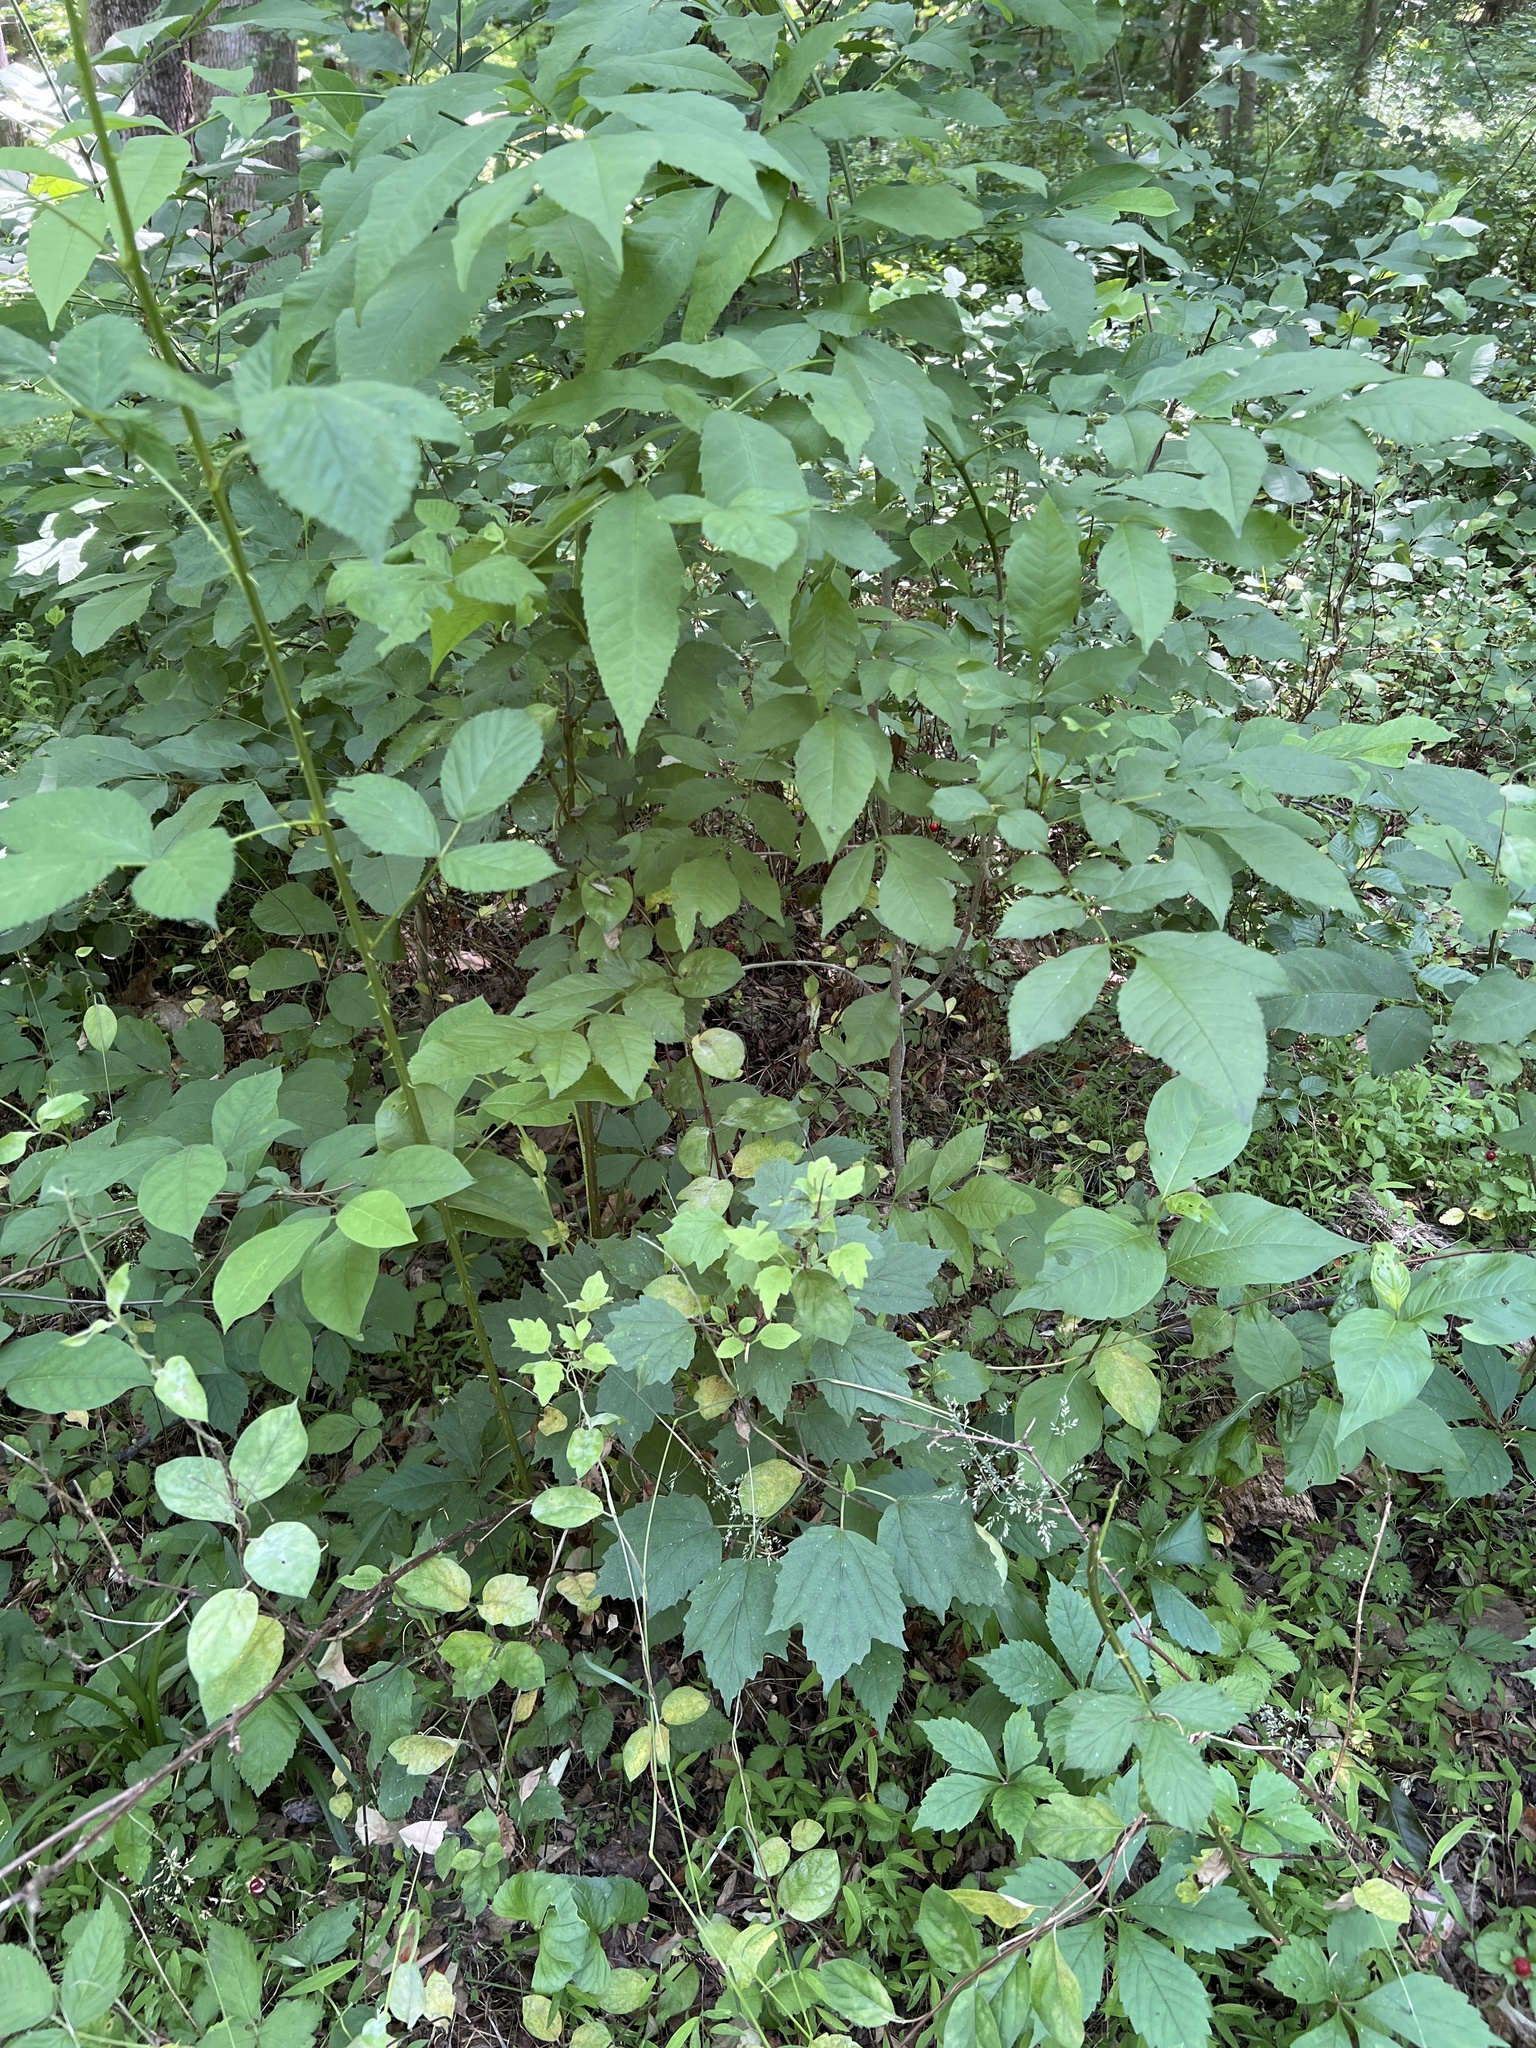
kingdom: Plantae
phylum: Tracheophyta
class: Magnoliopsida
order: Dipsacales
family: Viburnaceae
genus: Viburnum
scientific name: Viburnum acerifolium
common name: Dockmackie
